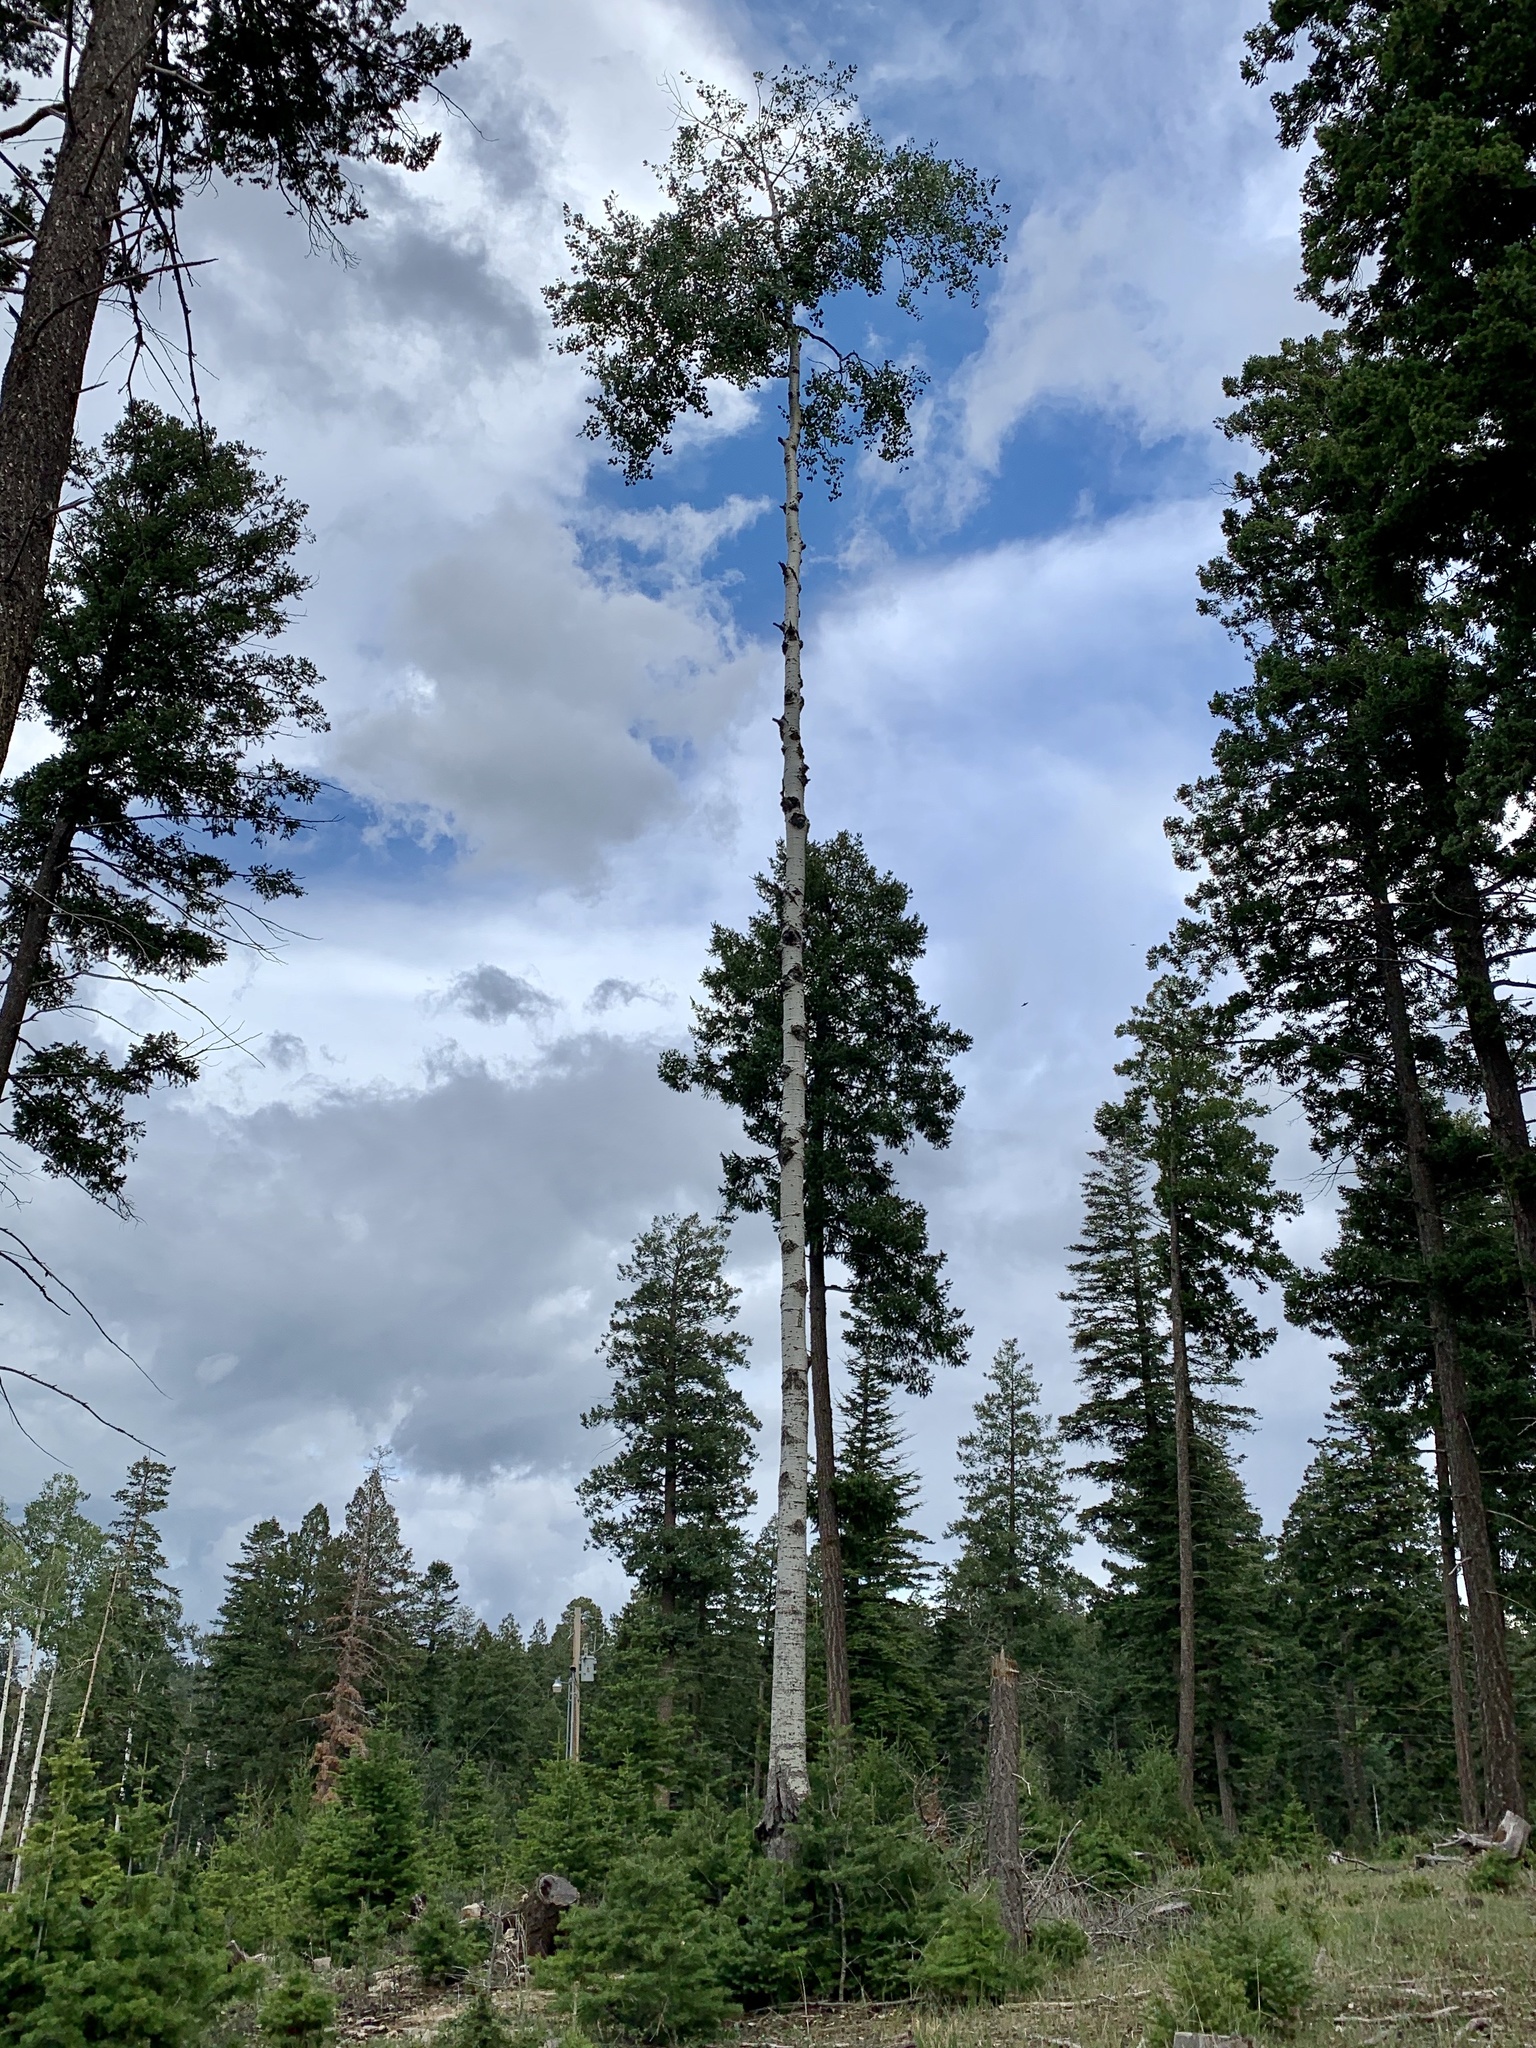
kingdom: Plantae
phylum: Tracheophyta
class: Magnoliopsida
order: Malpighiales
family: Salicaceae
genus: Populus
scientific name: Populus tremuloides
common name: Quaking aspen
